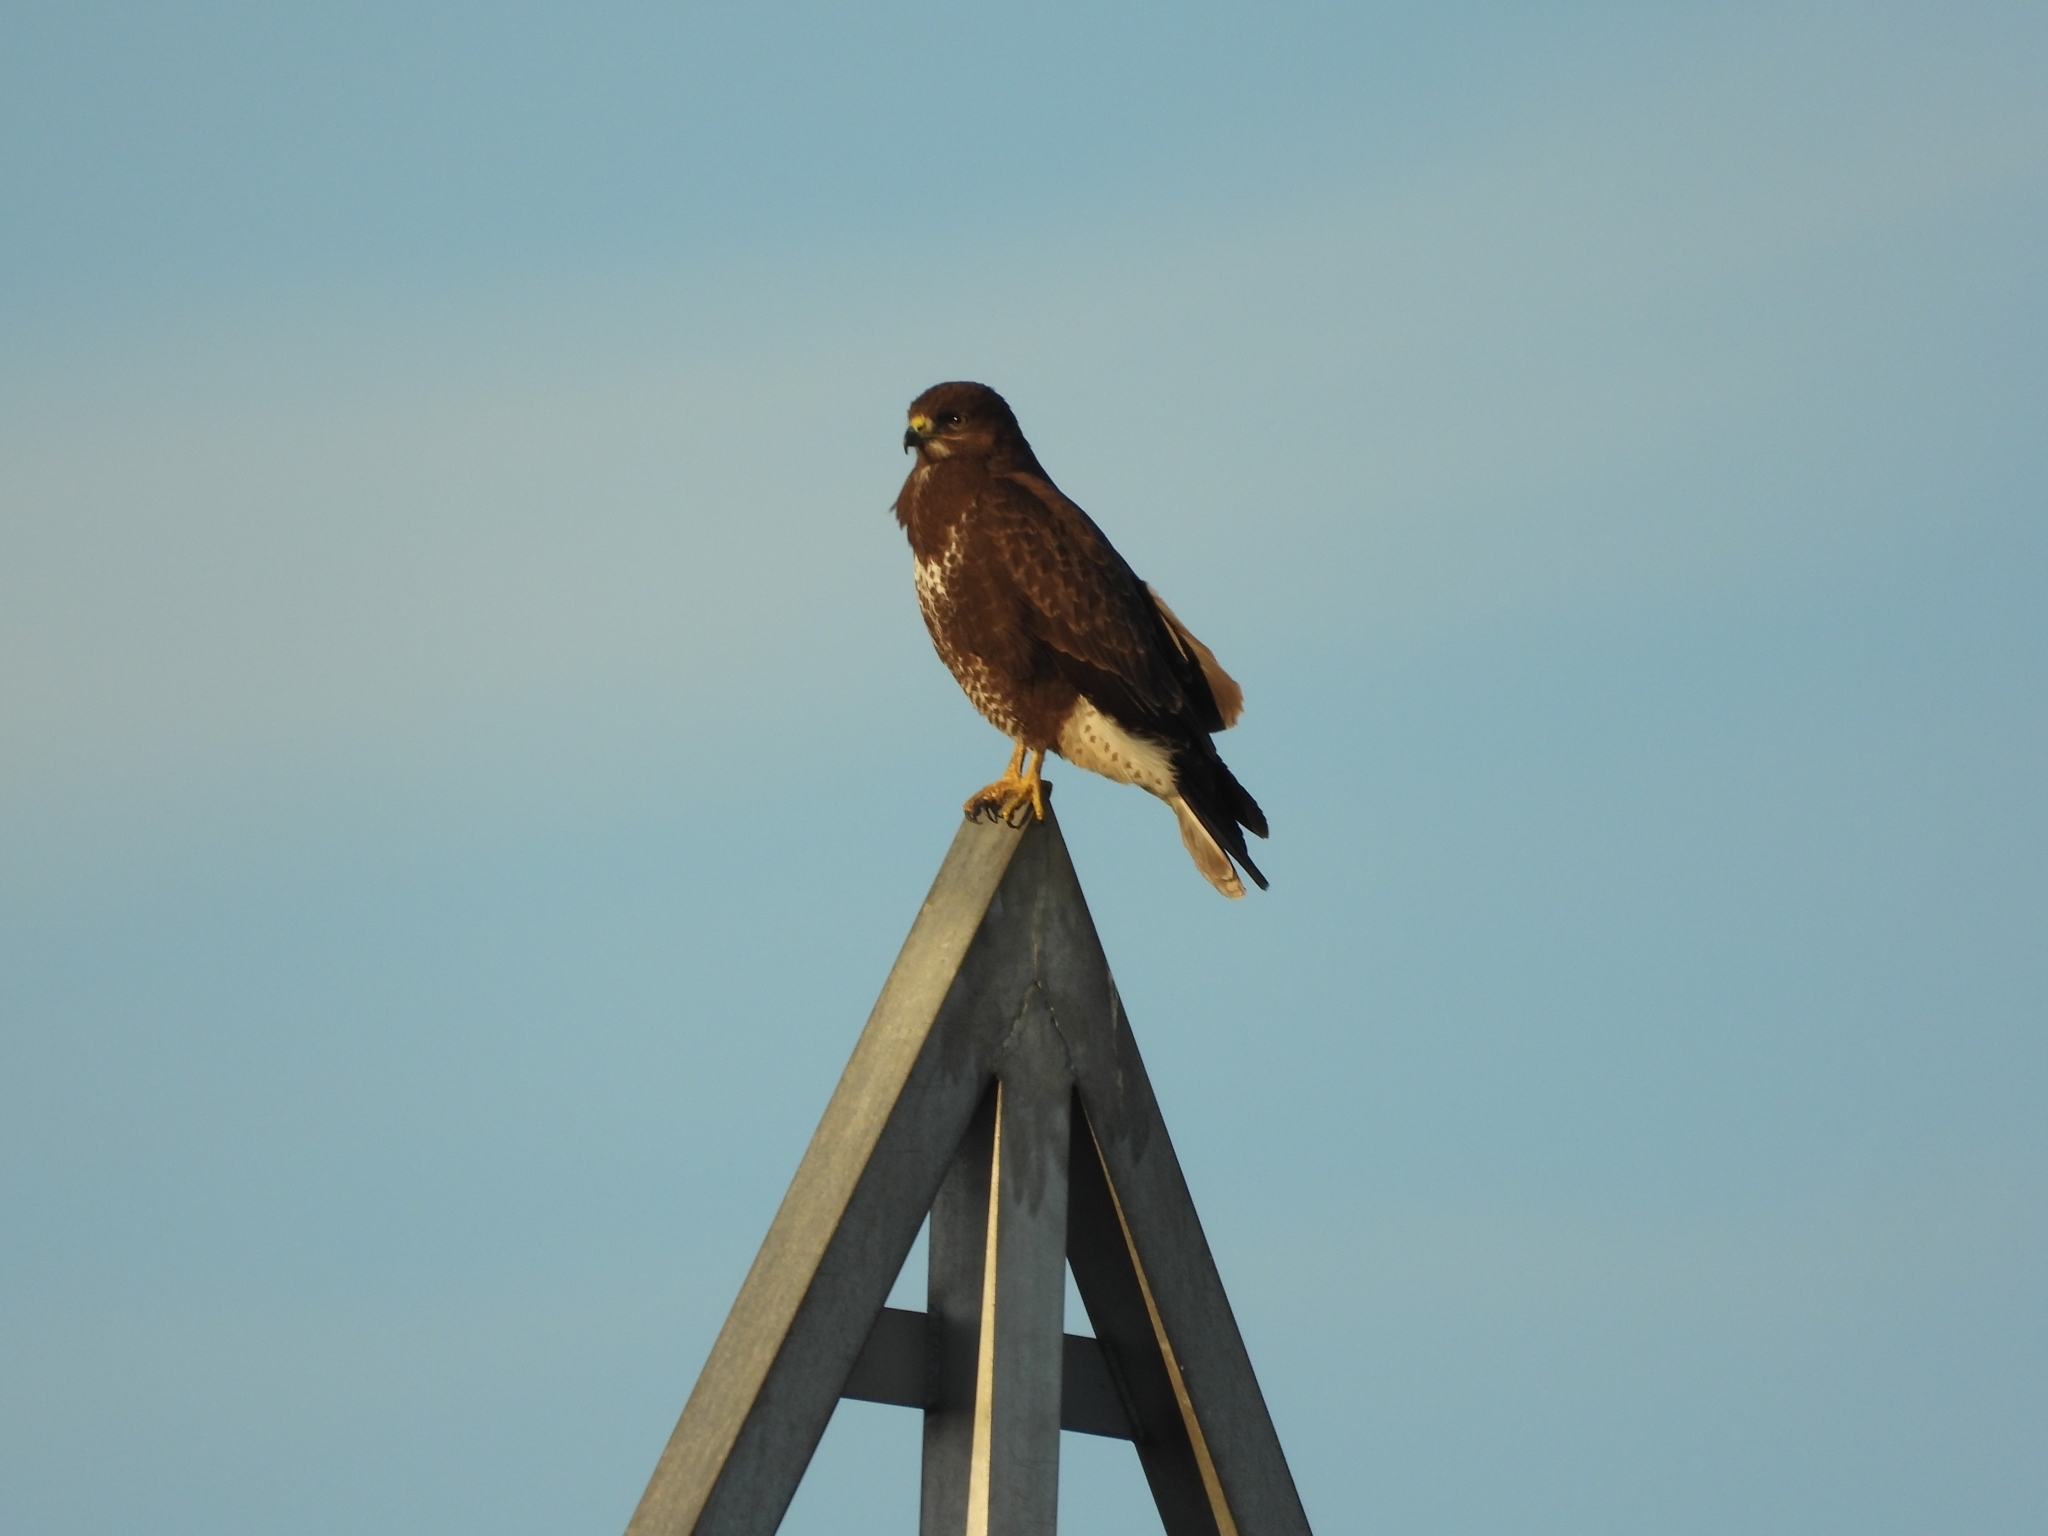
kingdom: Animalia
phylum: Chordata
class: Aves
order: Accipitriformes
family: Accipitridae
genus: Buteo
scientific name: Buteo buteo
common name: Common buzzard
